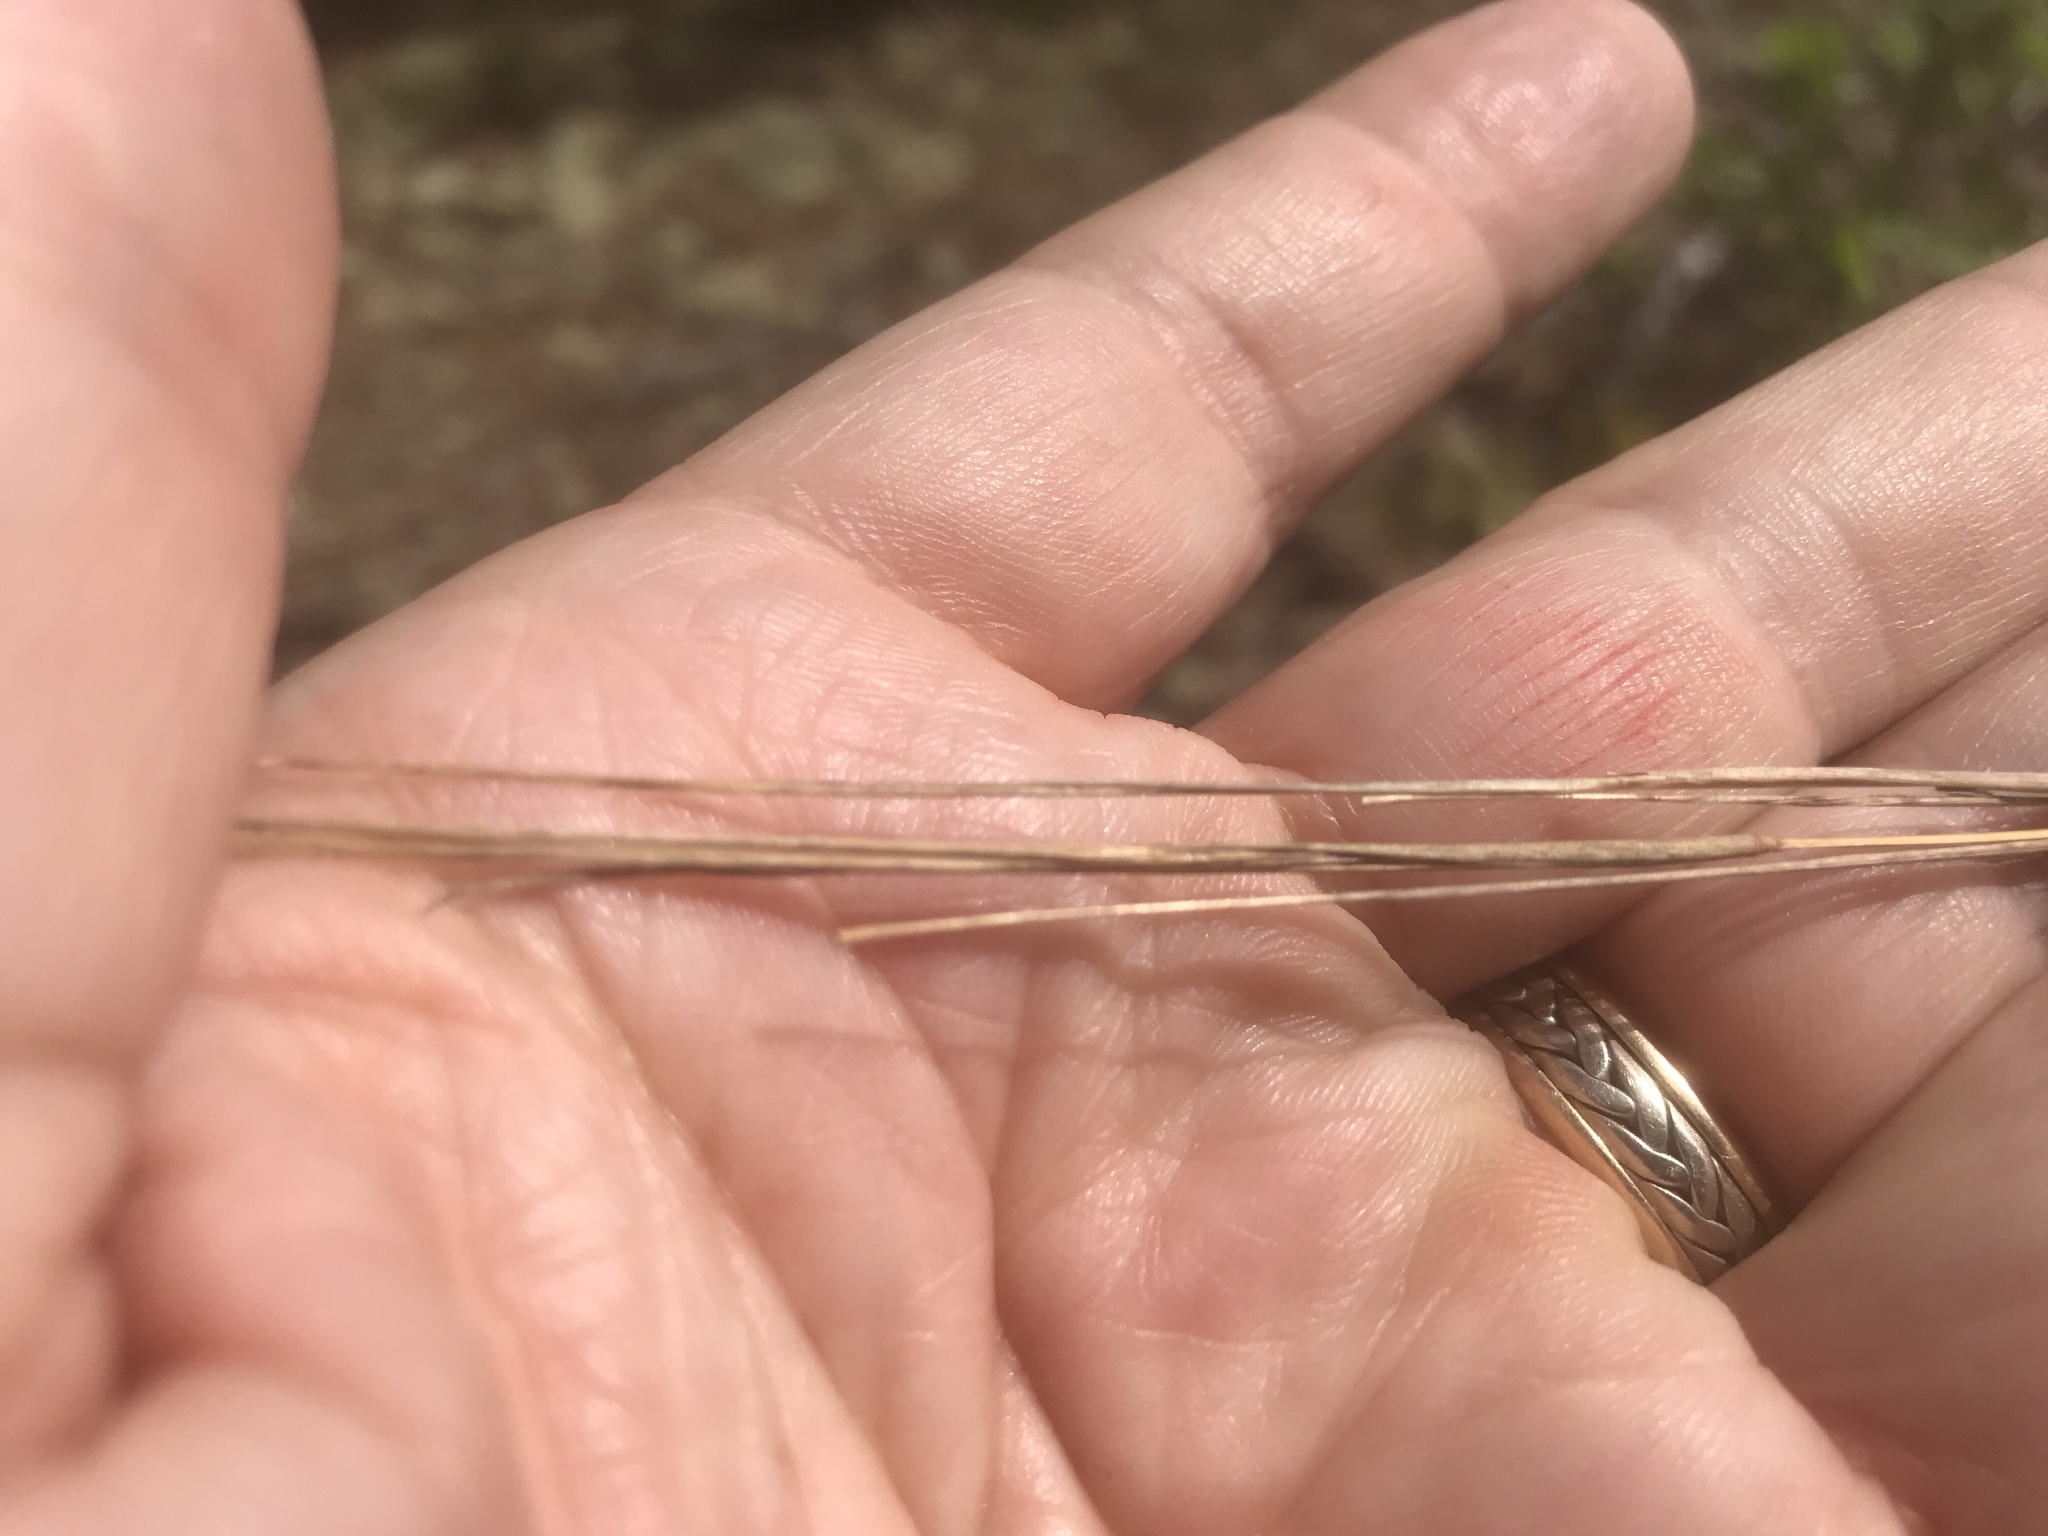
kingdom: Plantae
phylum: Tracheophyta
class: Liliopsida
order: Poales
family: Poaceae
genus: Schizachyrium
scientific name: Schizachyrium scoparium
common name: Little bluestem
